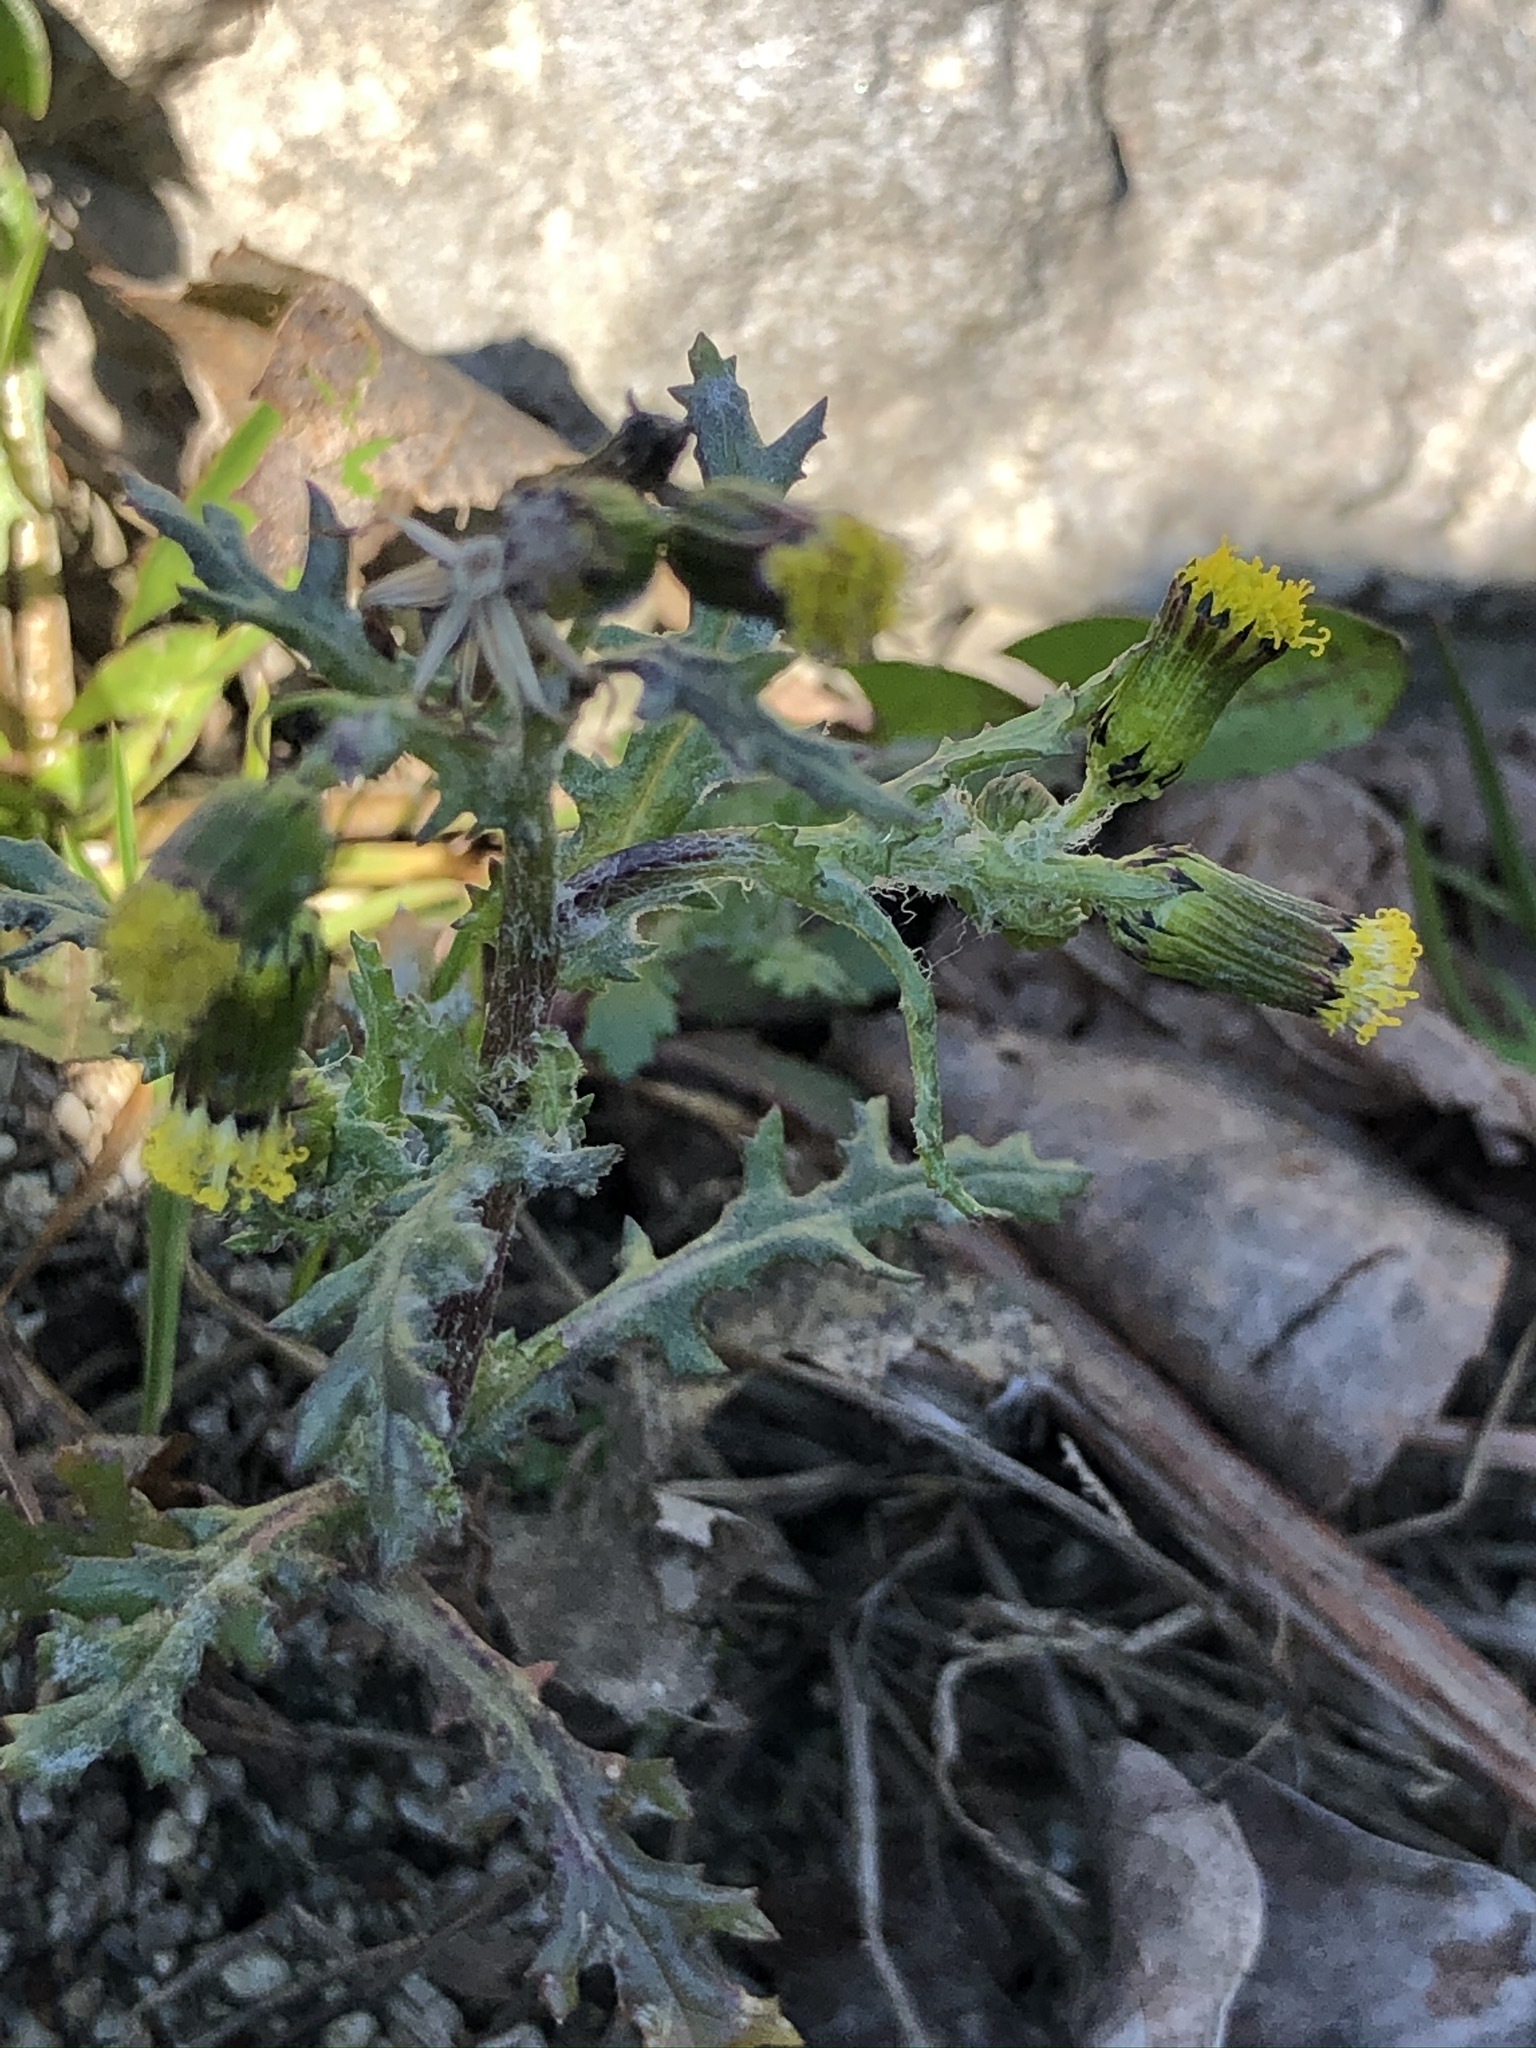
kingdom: Plantae
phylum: Tracheophyta
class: Magnoliopsida
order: Asterales
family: Asteraceae
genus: Senecio
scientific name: Senecio vulgaris
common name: Old-man-in-the-spring
